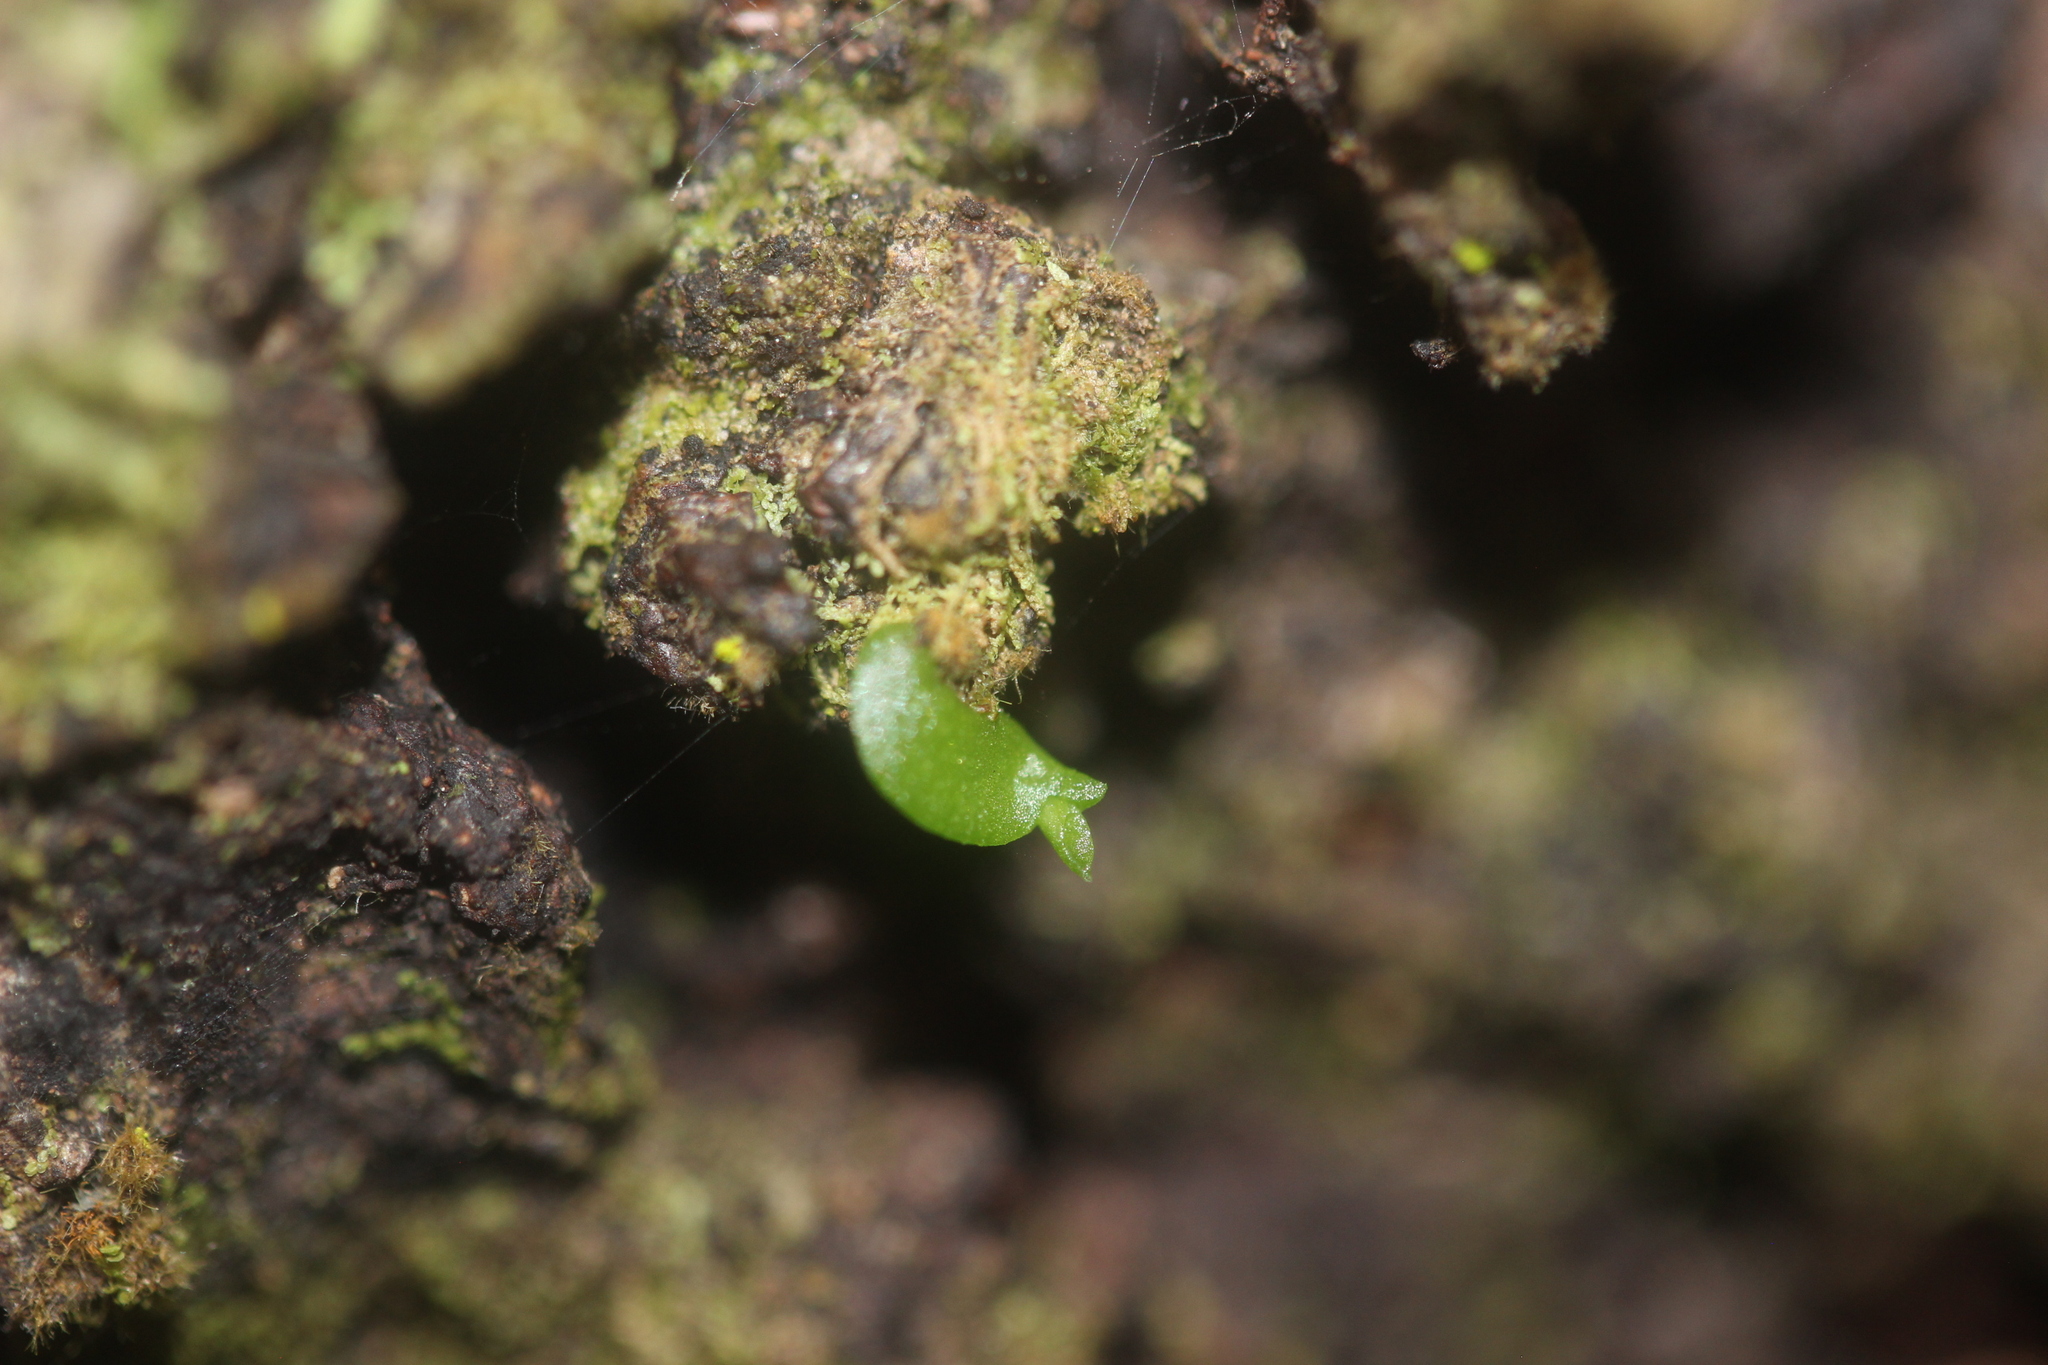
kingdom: Plantae
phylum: Tracheophyta
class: Liliopsida
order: Asparagales
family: Orchidaceae
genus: Drymoanthus
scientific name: Drymoanthus adversus
